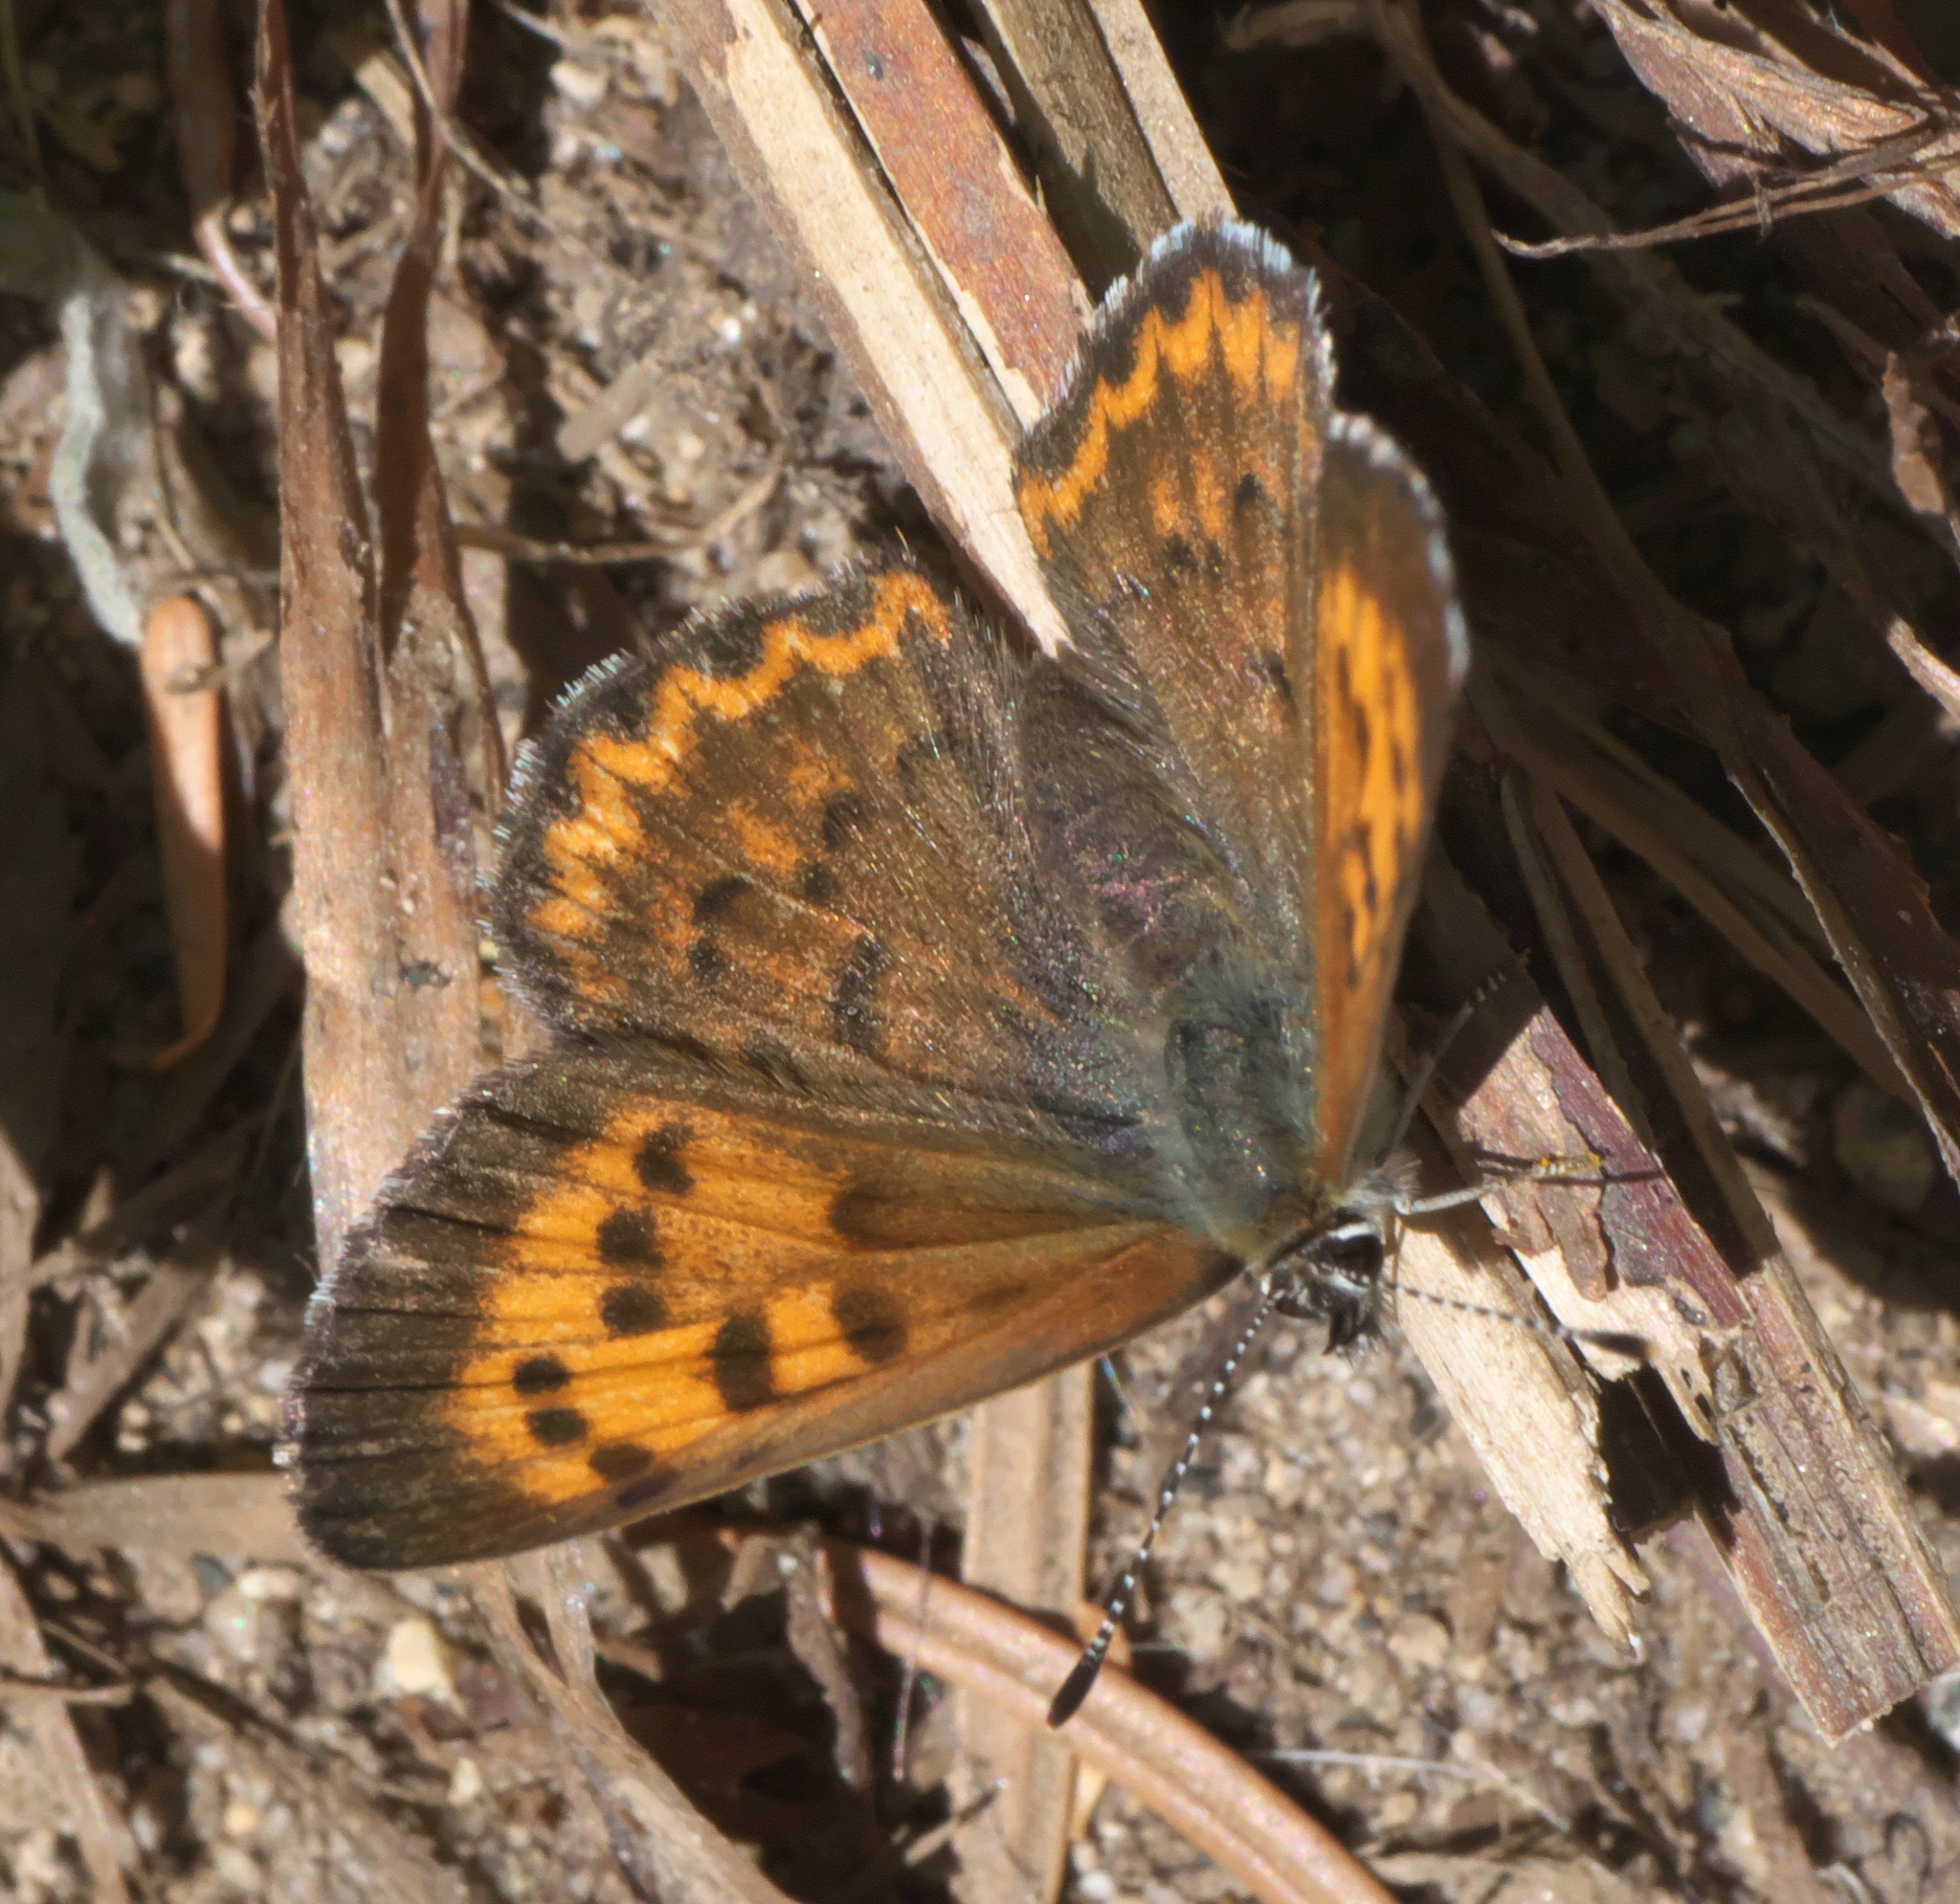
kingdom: Animalia
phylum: Arthropoda
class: Insecta
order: Lepidoptera
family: Lycaenidae
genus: Tharsalea
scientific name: Tharsalea mariposa
